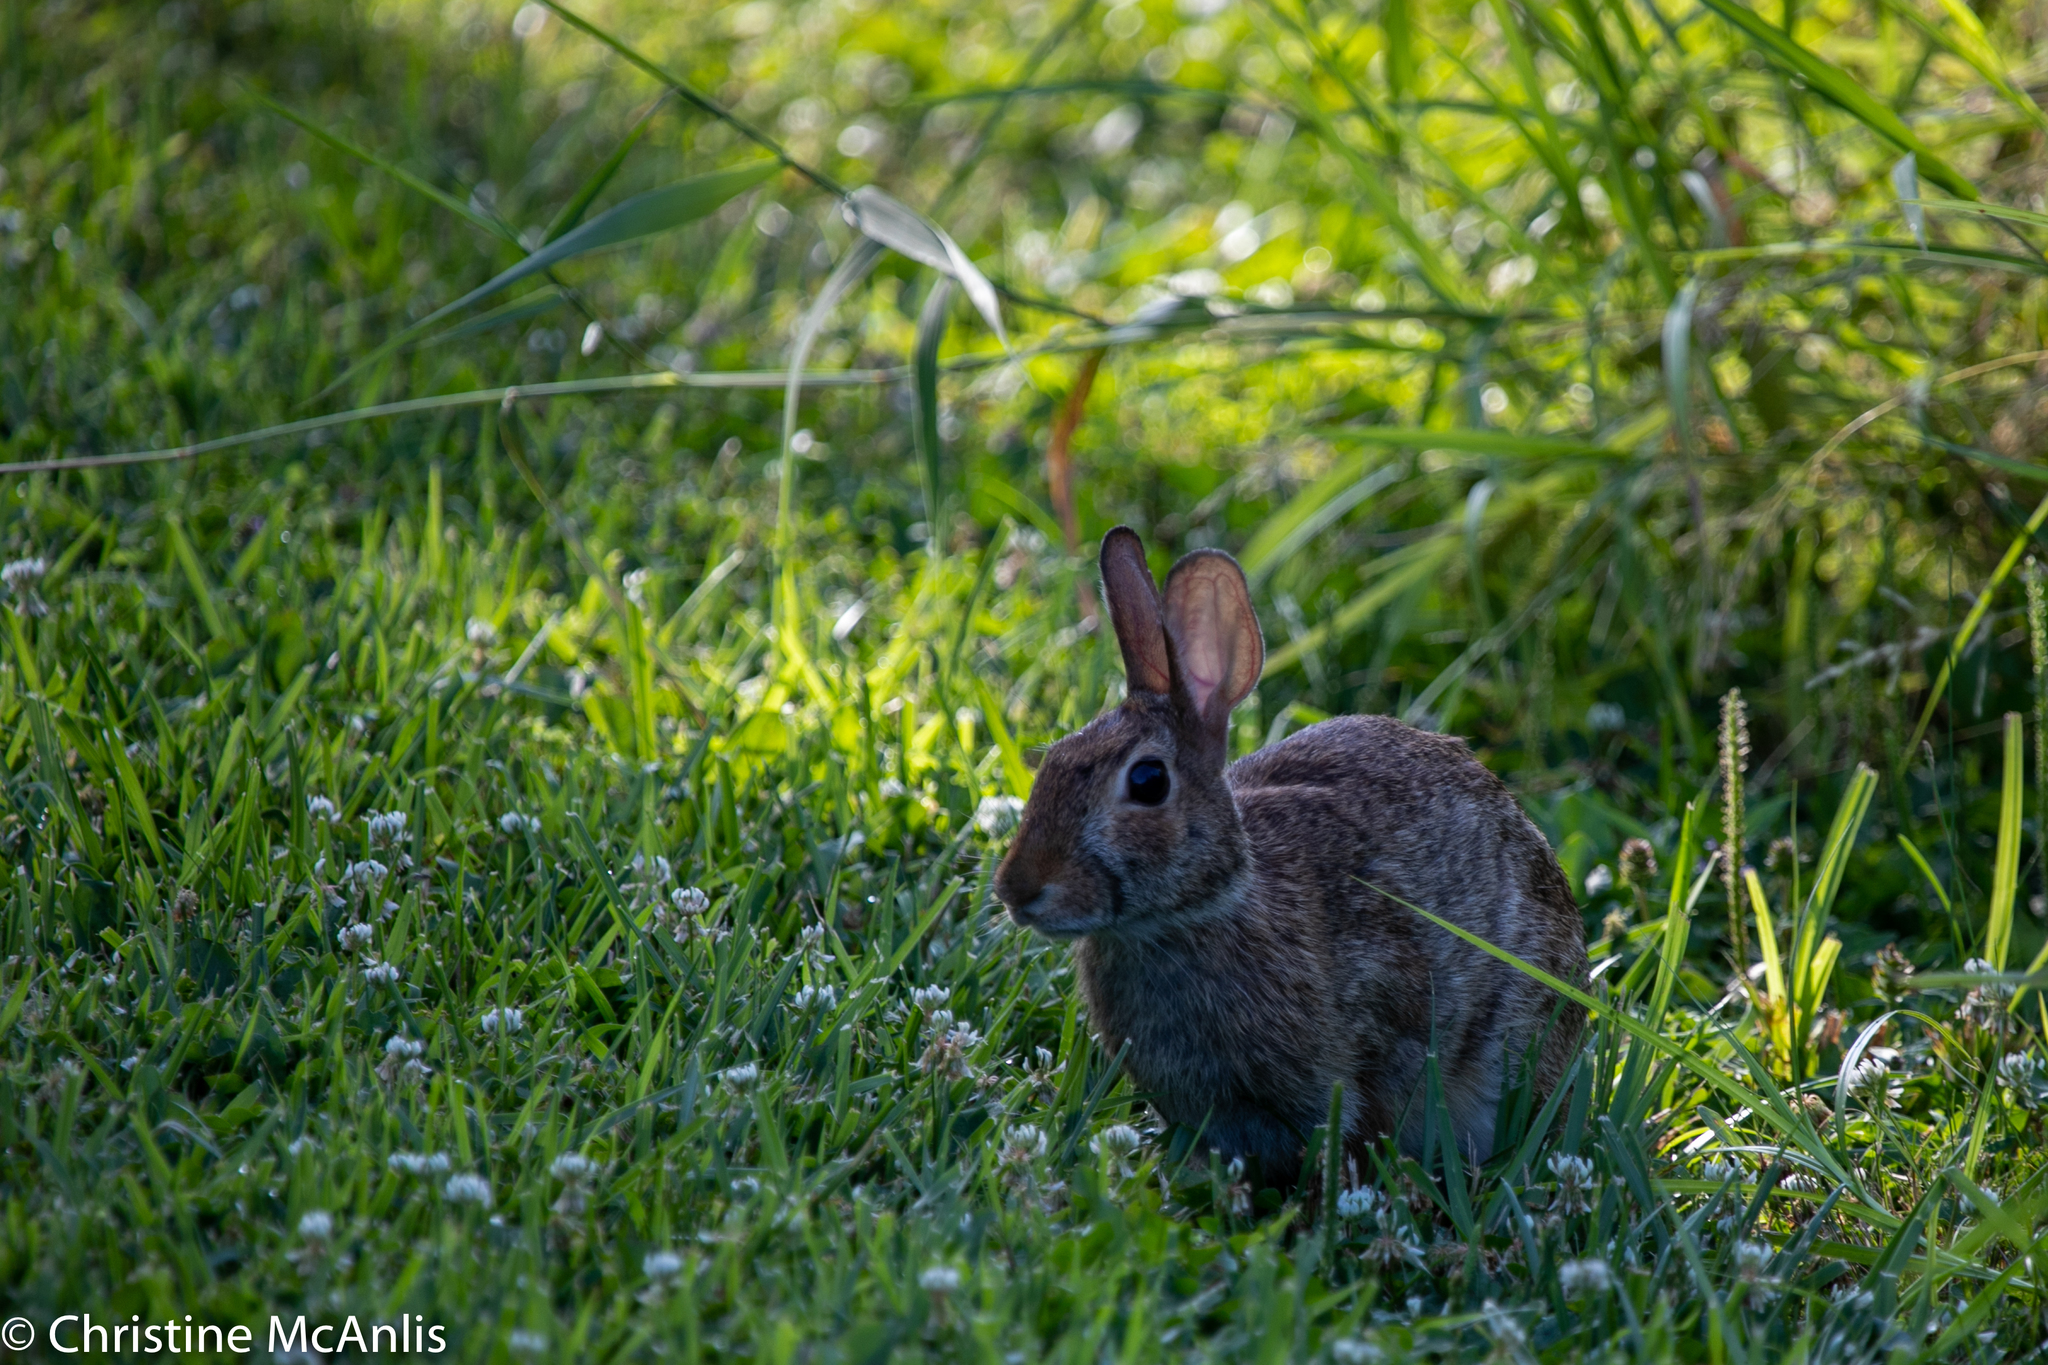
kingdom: Animalia
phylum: Chordata
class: Mammalia
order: Lagomorpha
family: Leporidae
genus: Sylvilagus
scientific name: Sylvilagus floridanus
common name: Eastern cottontail
